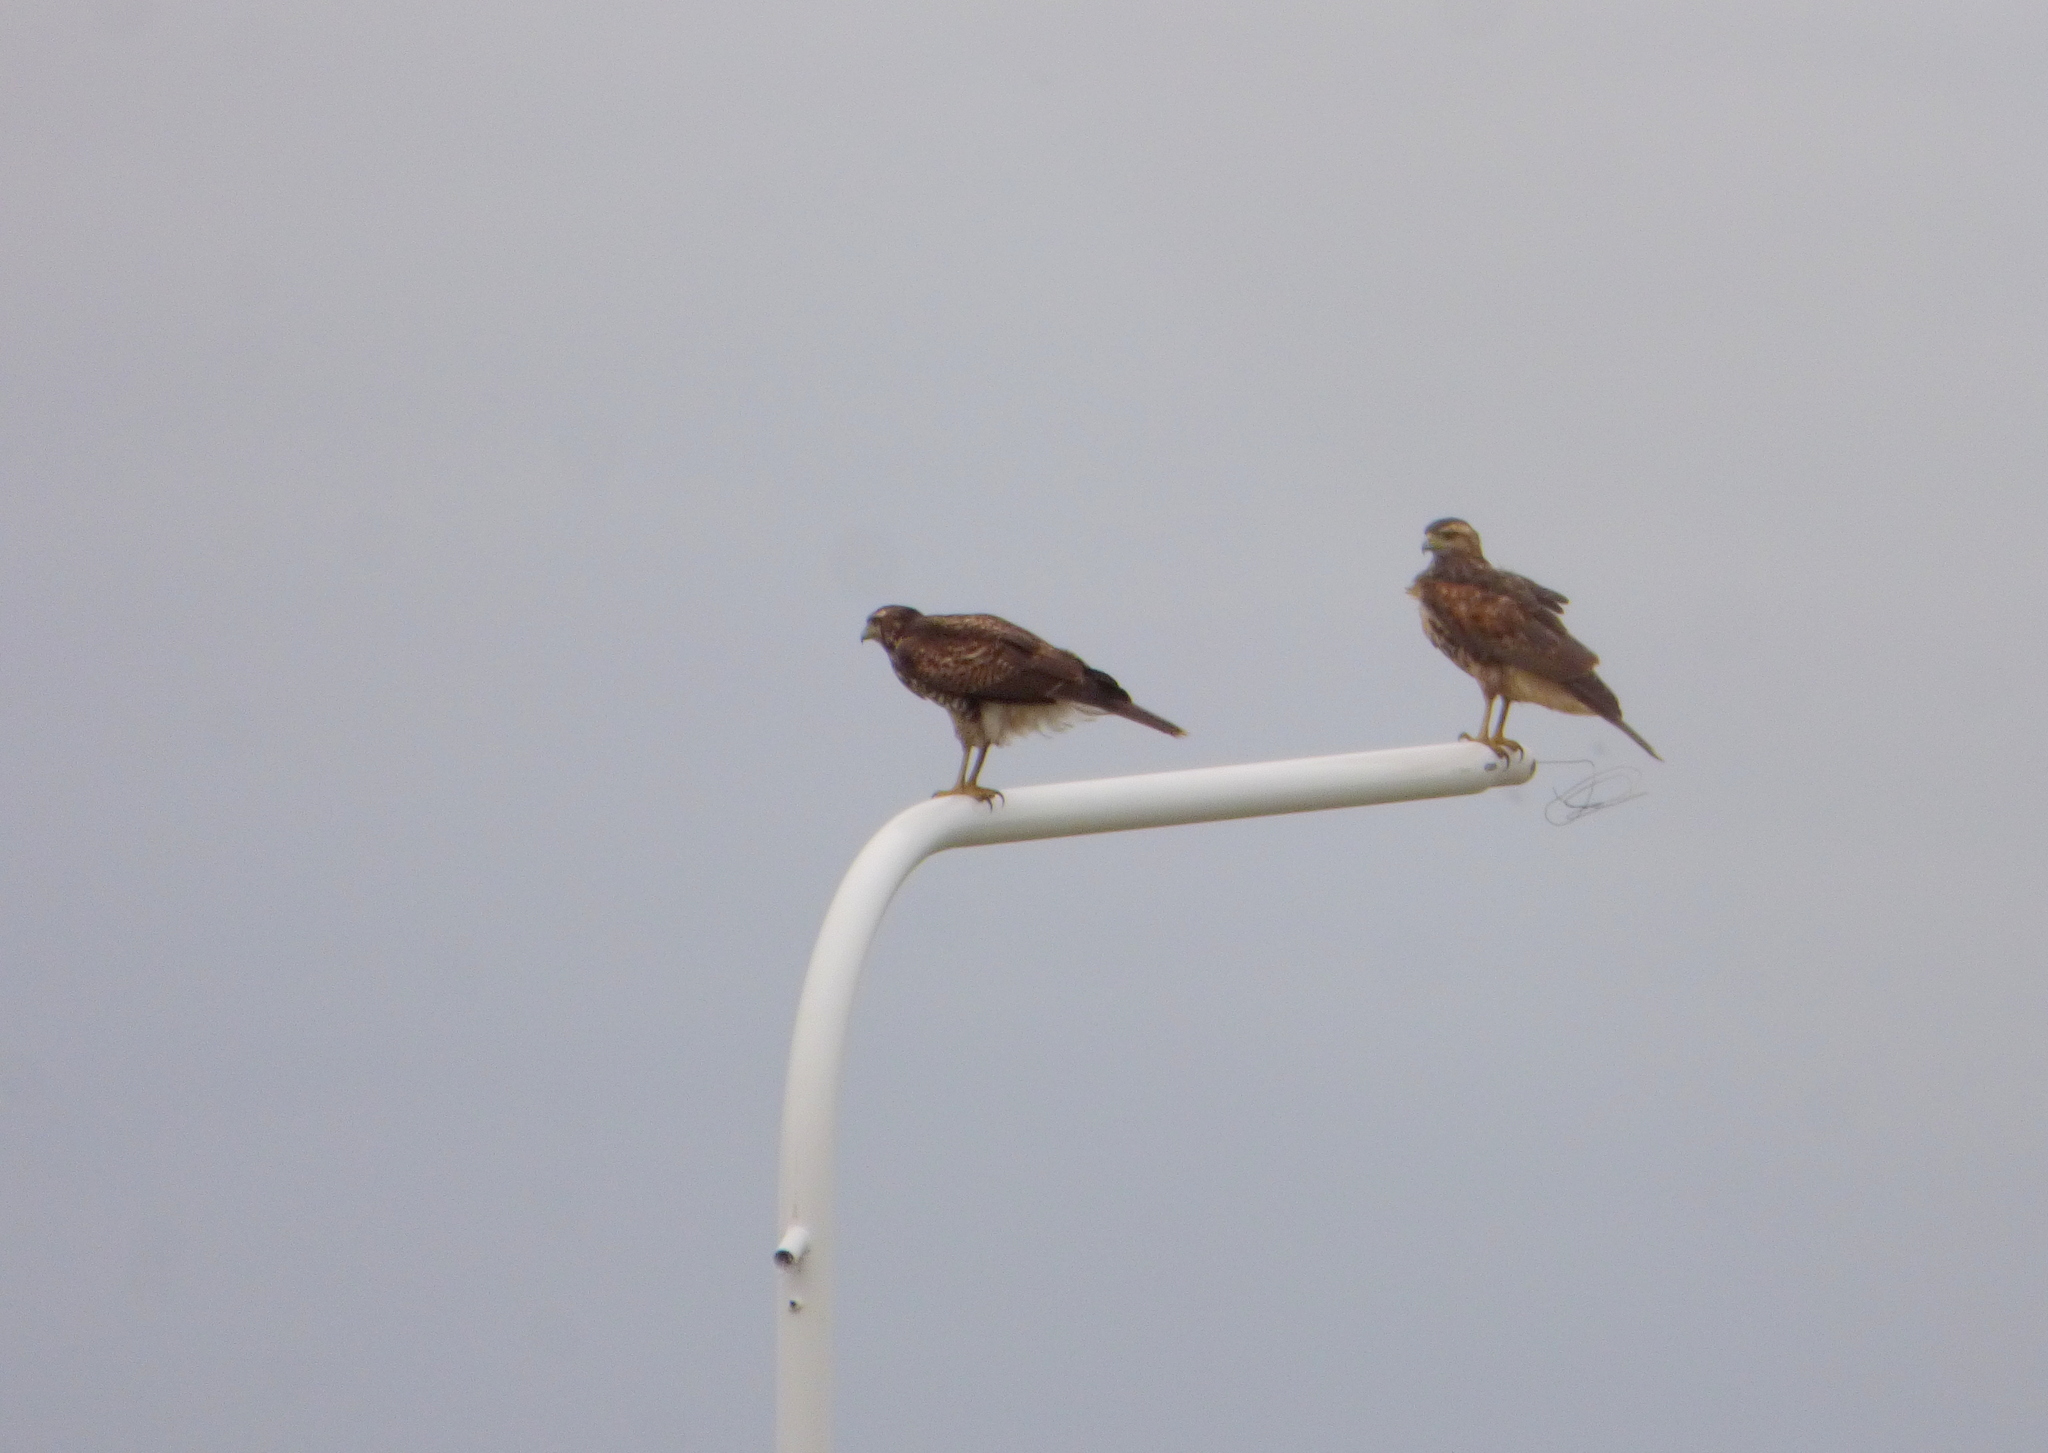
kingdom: Animalia
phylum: Chordata
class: Aves
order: Accipitriformes
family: Accipitridae
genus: Parabuteo
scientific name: Parabuteo unicinctus
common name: Harris's hawk
